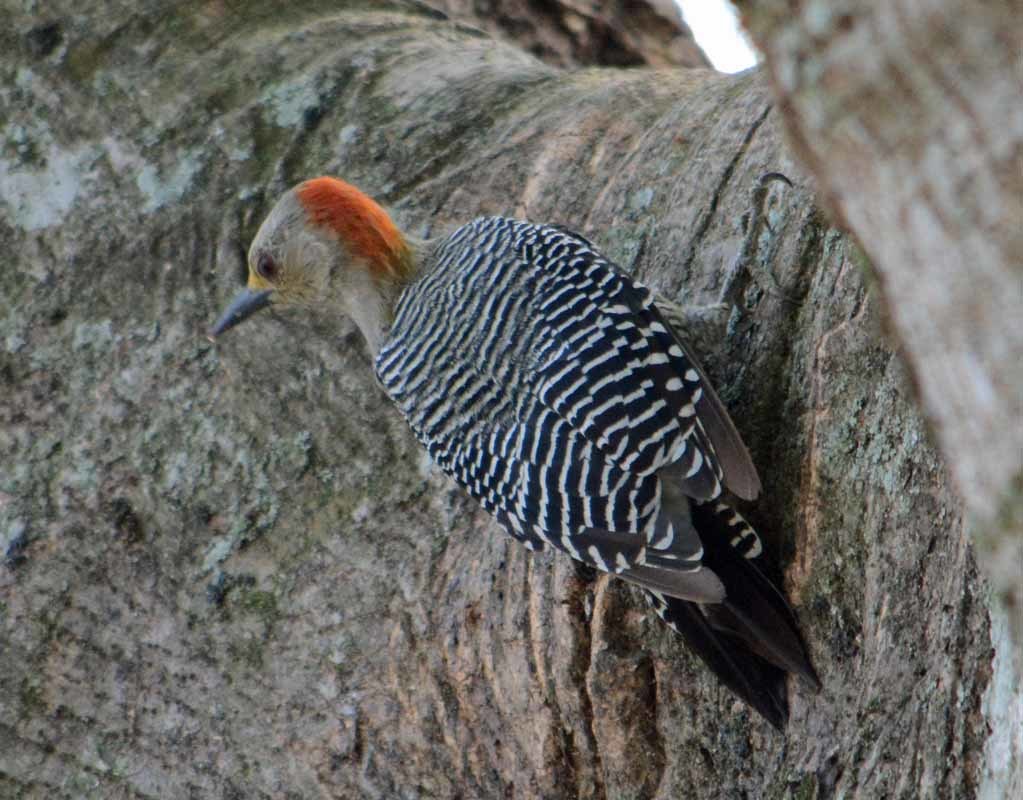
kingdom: Animalia
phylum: Chordata
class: Aves
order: Piciformes
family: Picidae
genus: Melanerpes
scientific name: Melanerpes aurifrons
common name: Golden-fronted woodpecker
